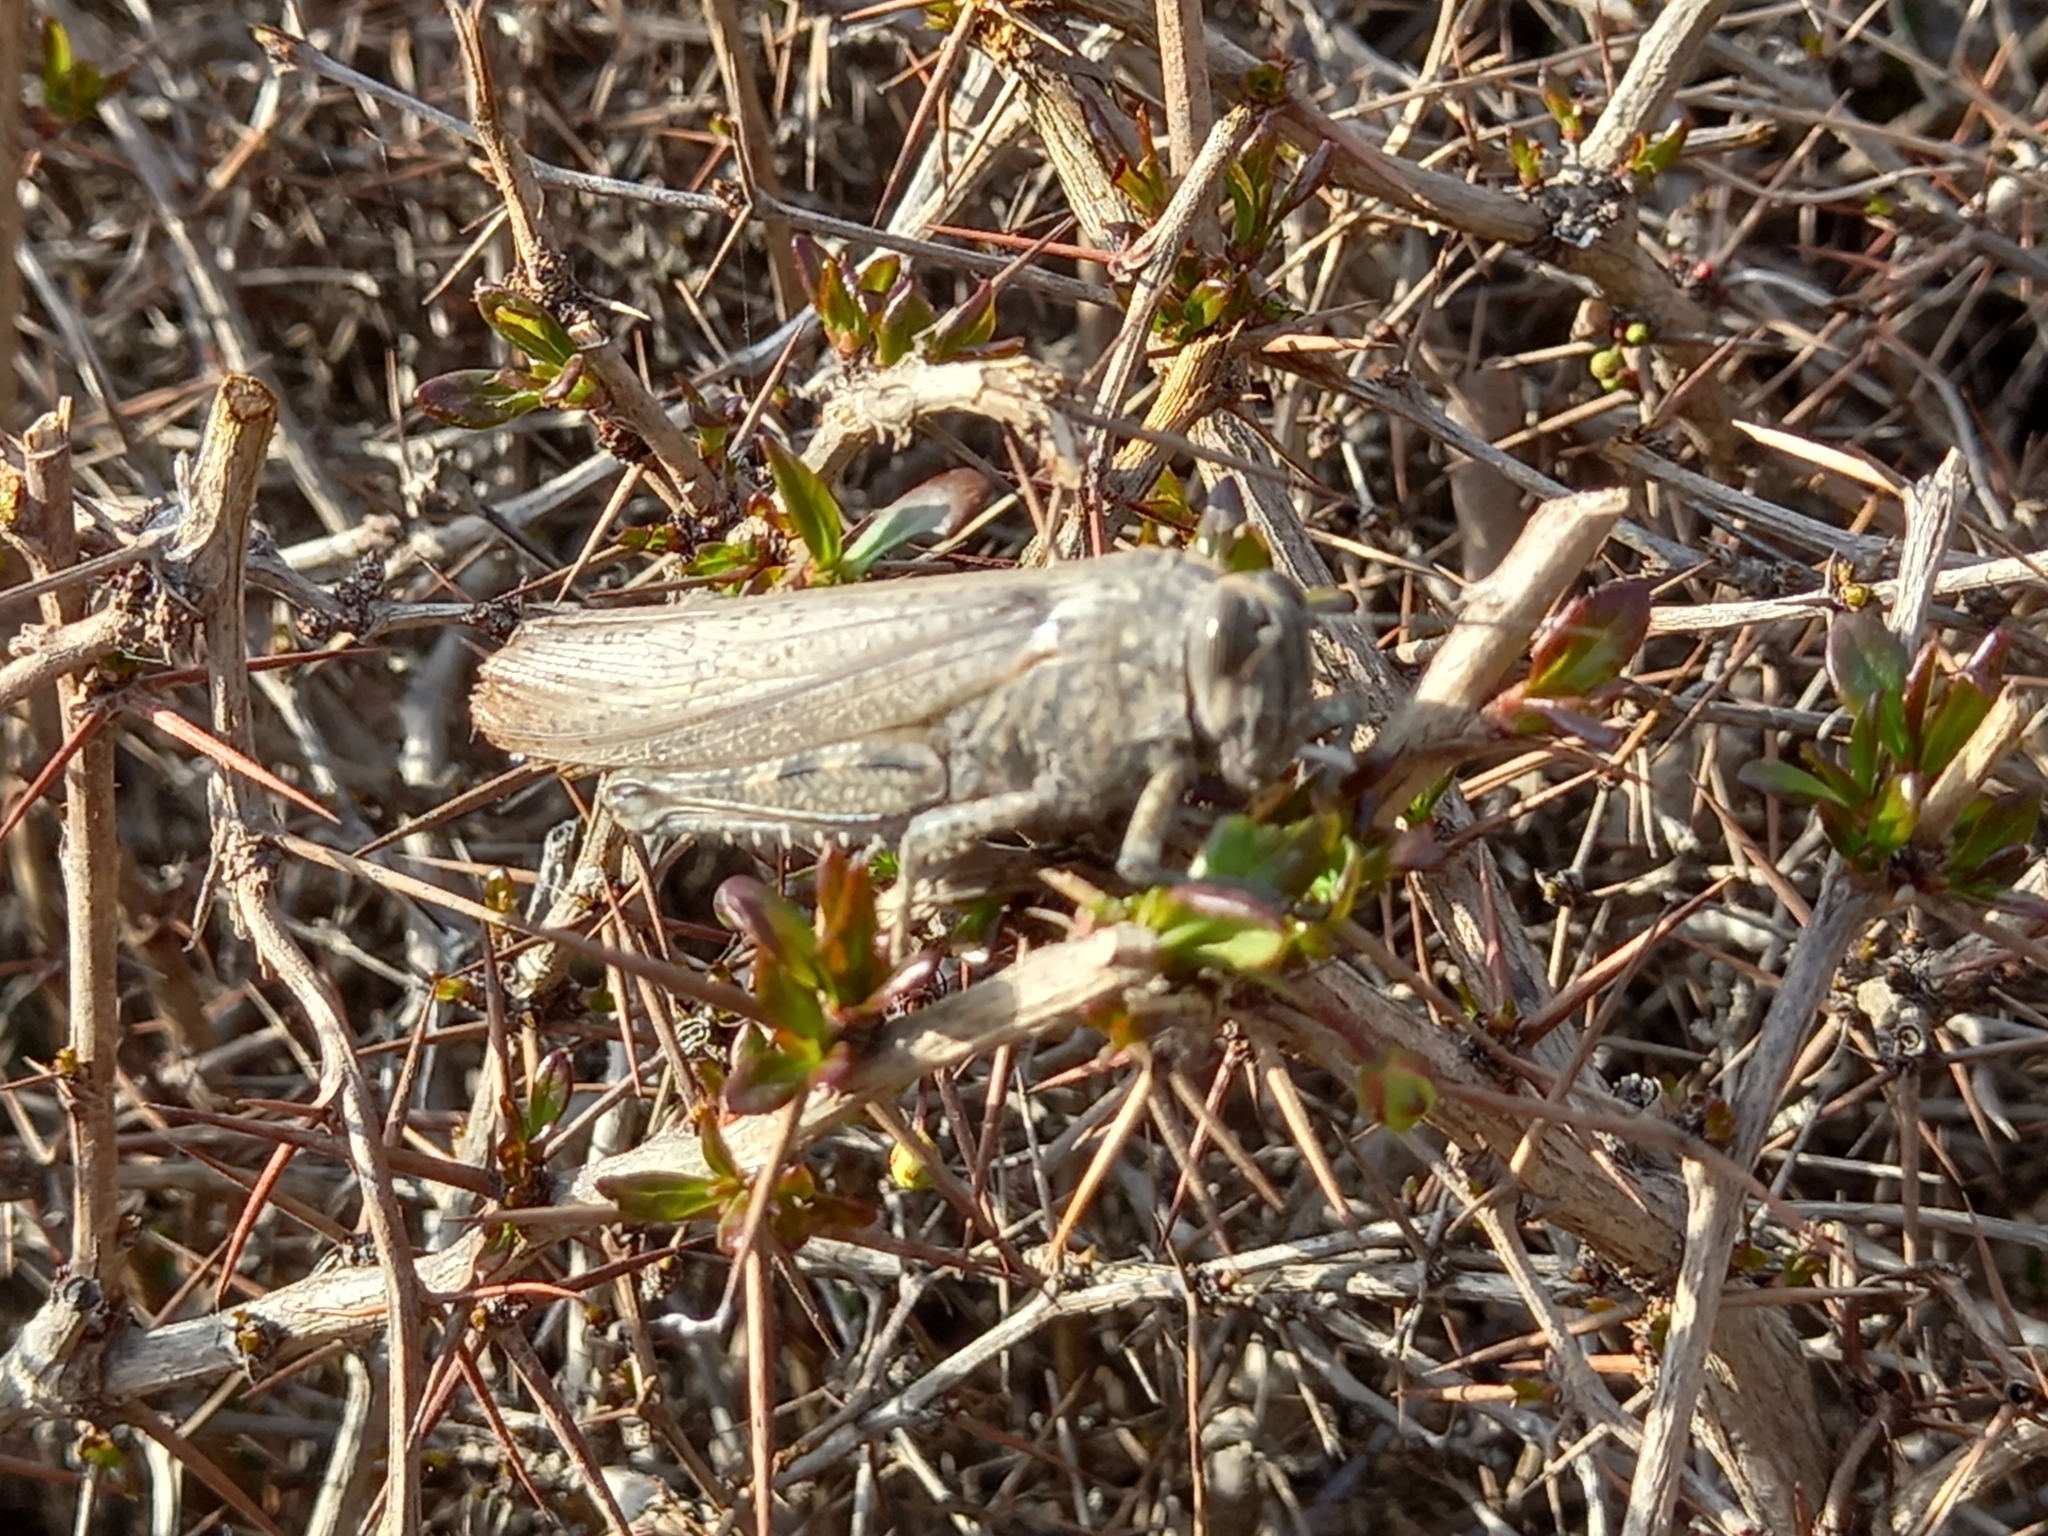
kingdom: Animalia
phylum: Arthropoda
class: Insecta
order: Orthoptera
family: Acrididae
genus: Anacridium
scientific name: Anacridium aegyptium
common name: Egyptian grasshopper
